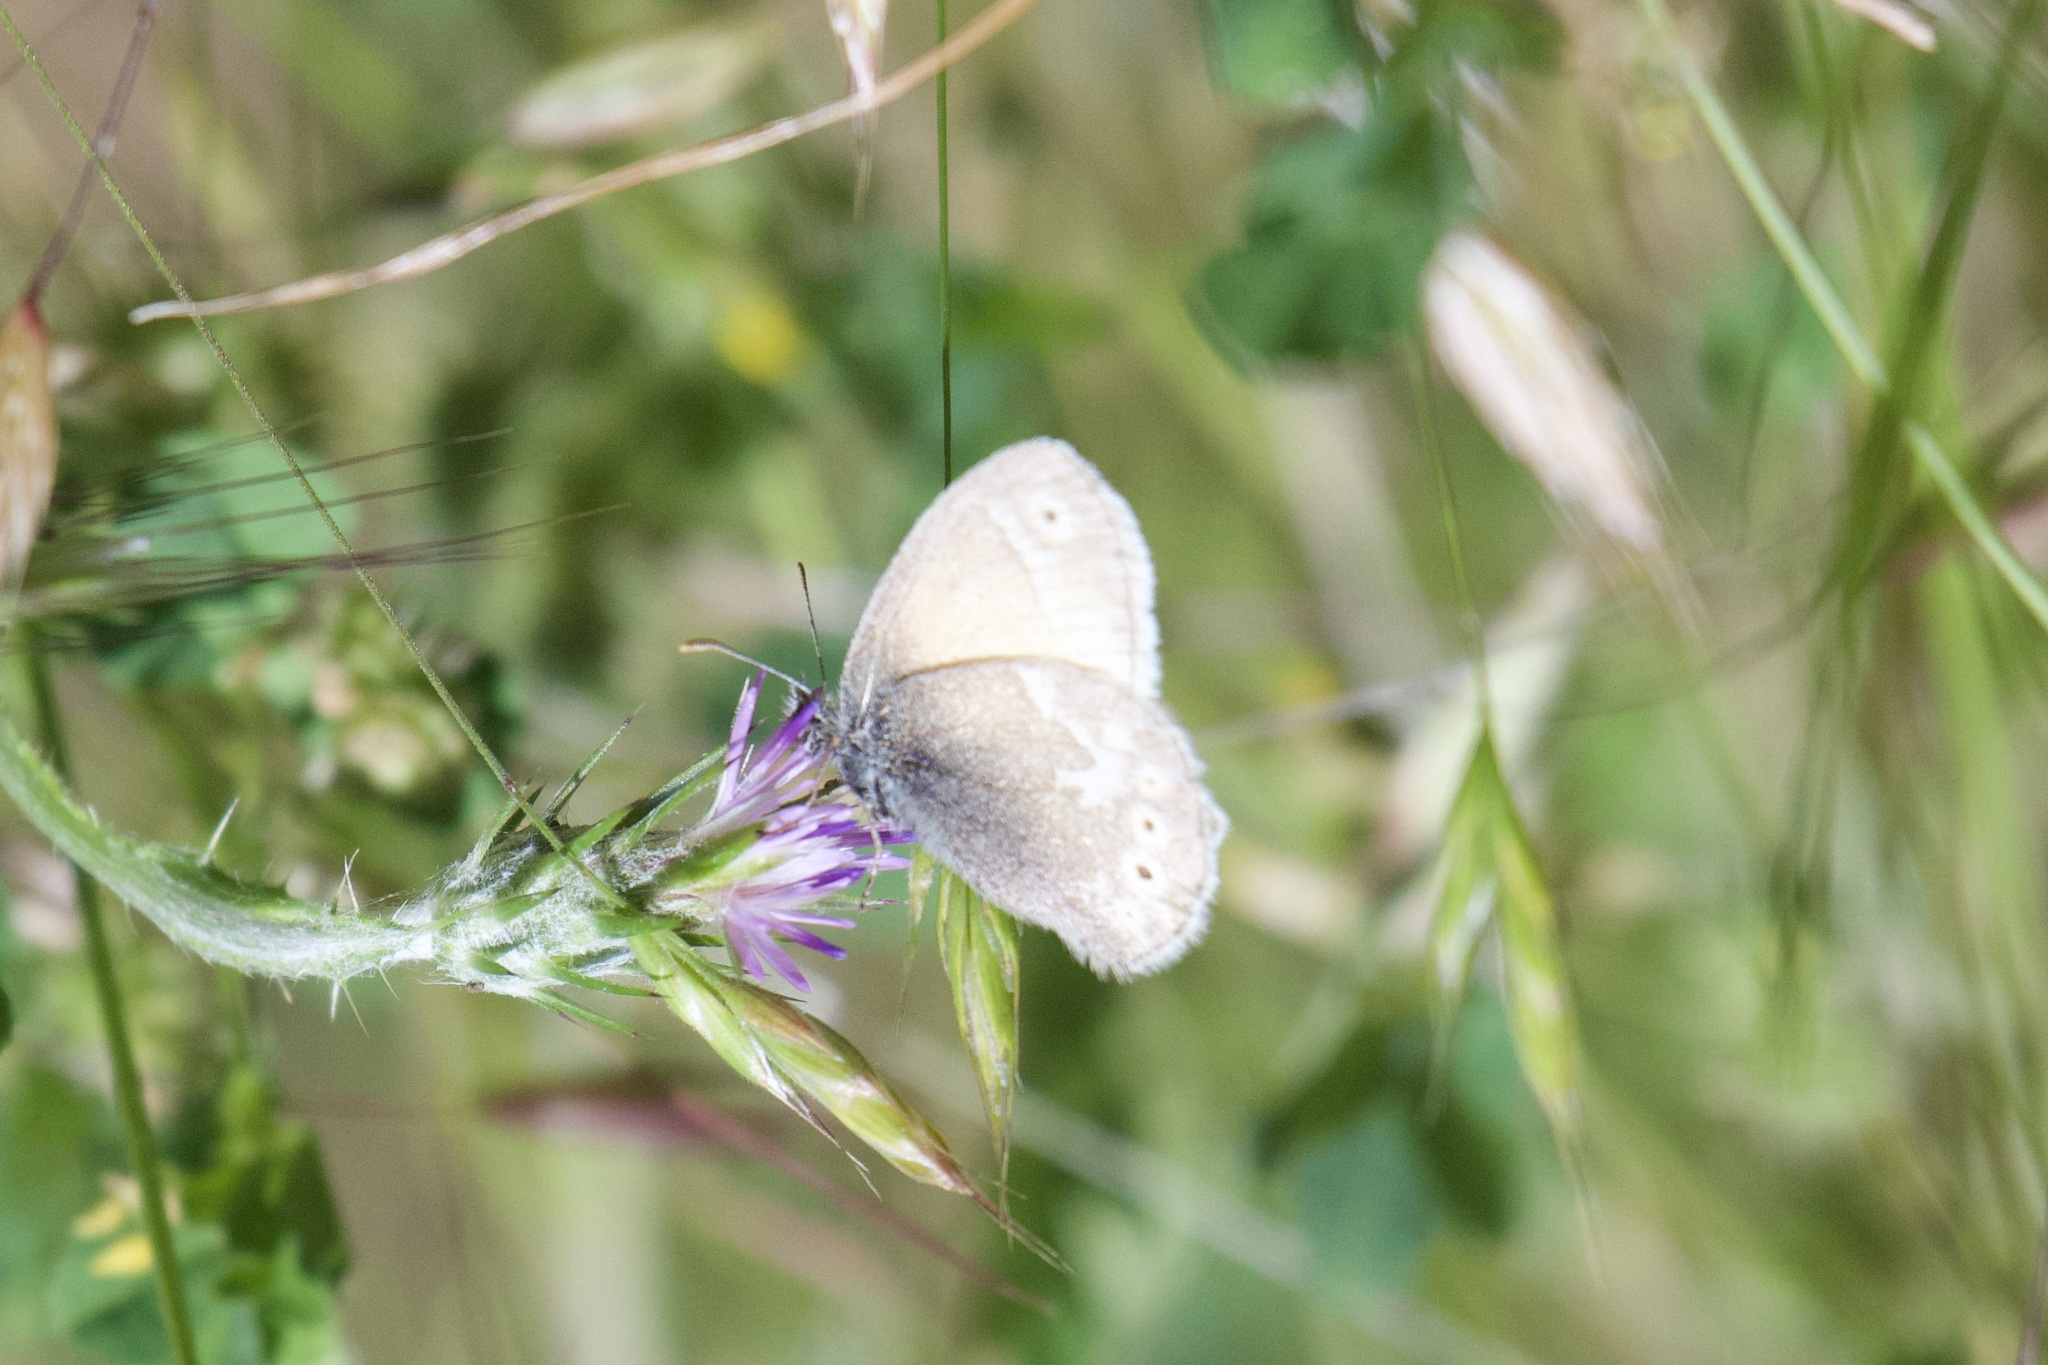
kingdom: Animalia
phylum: Arthropoda
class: Insecta
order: Lepidoptera
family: Nymphalidae
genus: Coenonympha
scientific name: Coenonympha california
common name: Common ringlet
